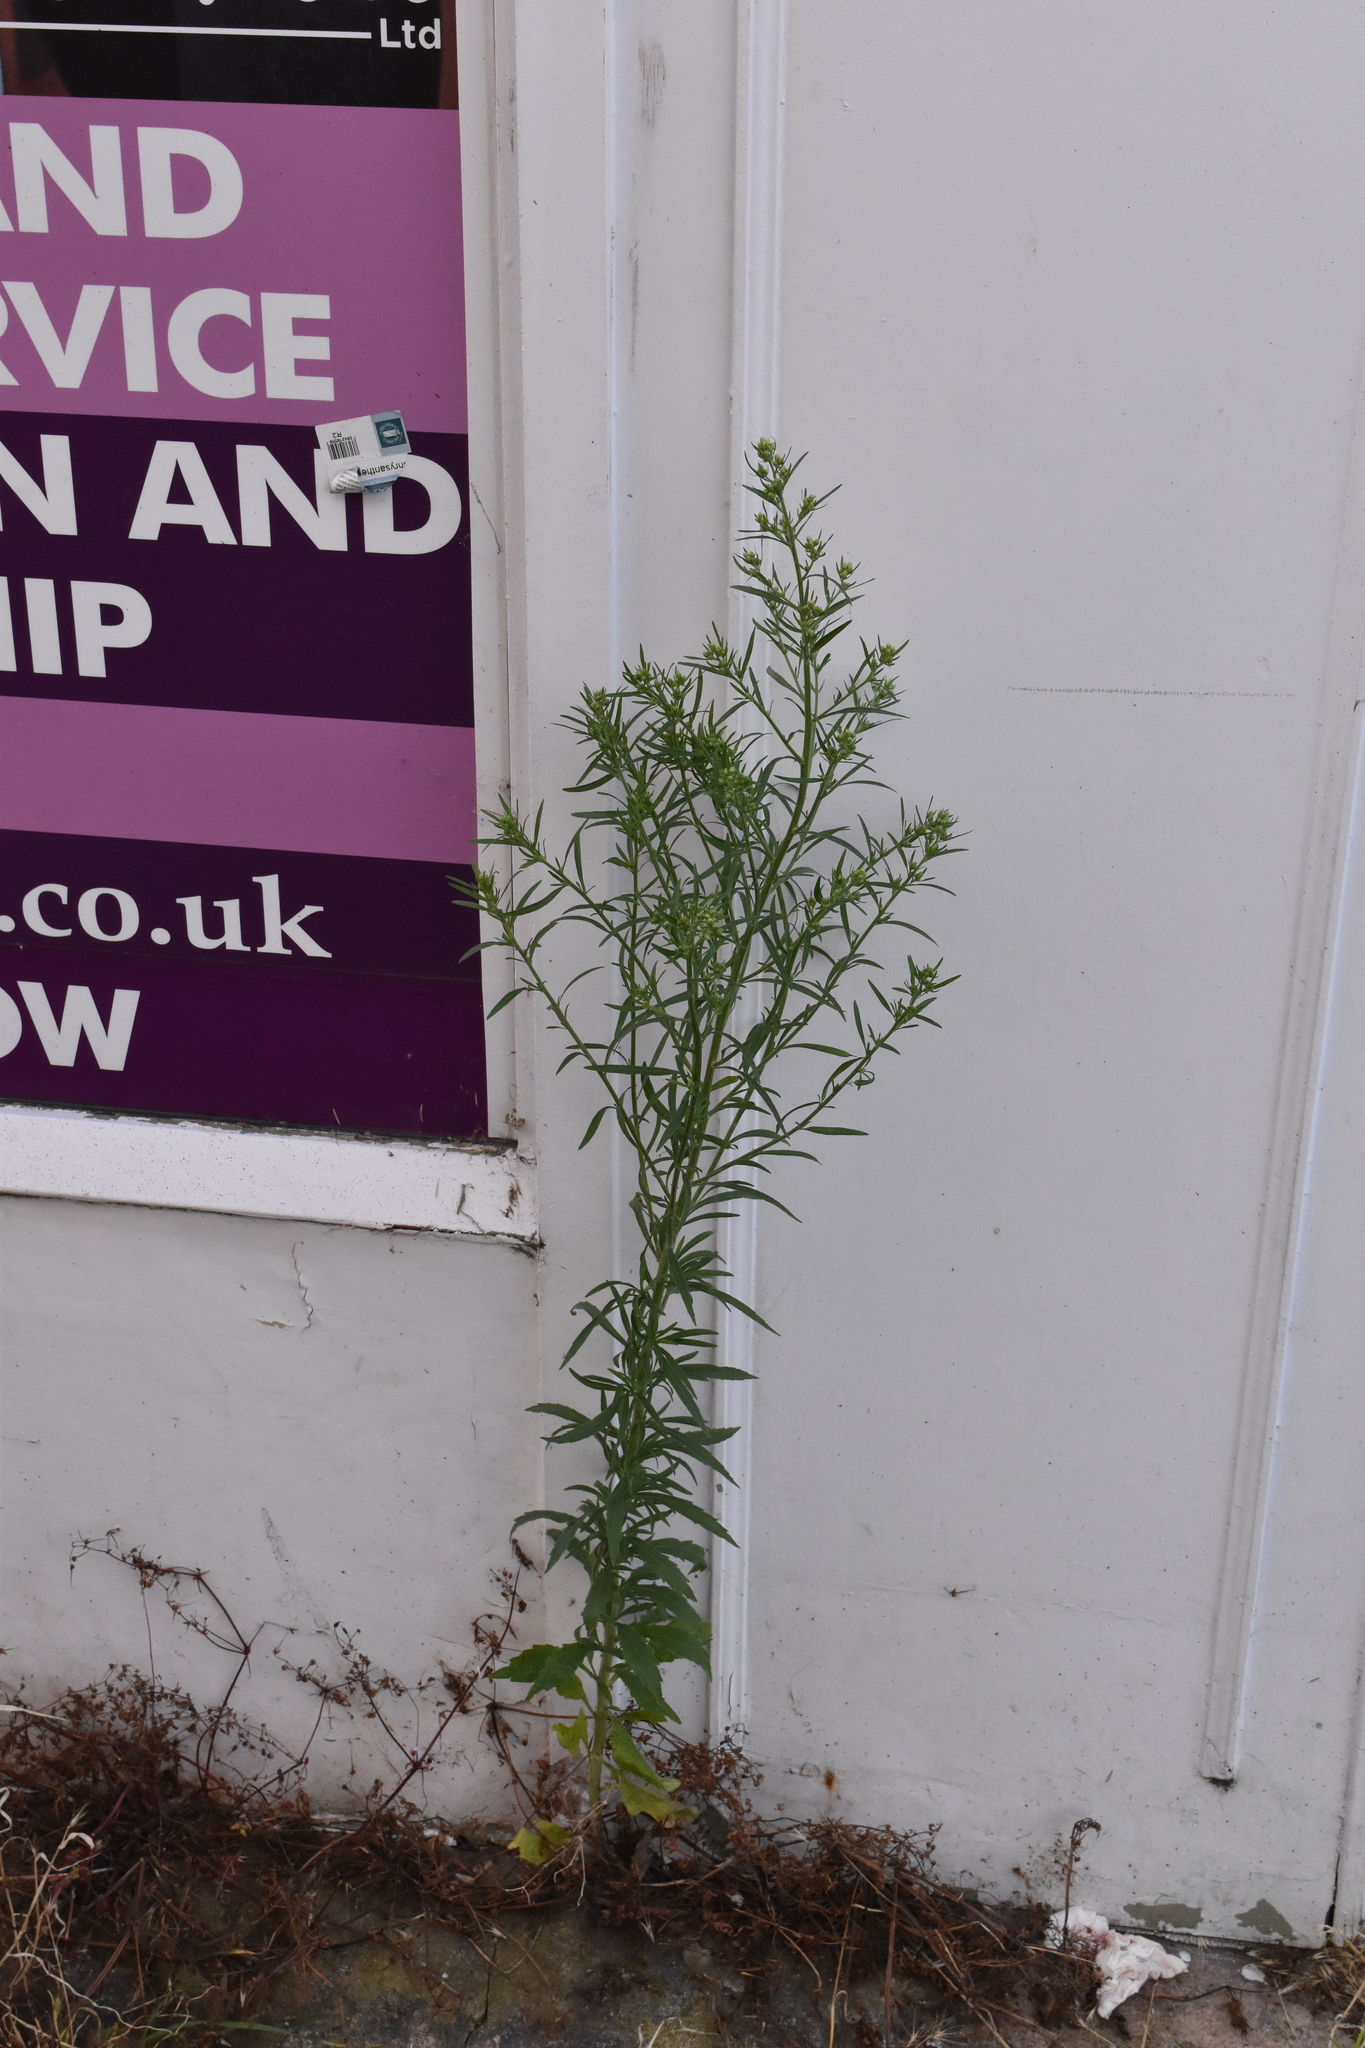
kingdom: Plantae
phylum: Tracheophyta
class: Magnoliopsida
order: Asterales
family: Asteraceae
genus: Erigeron
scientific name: Erigeron sumatrensis
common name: Daisy
